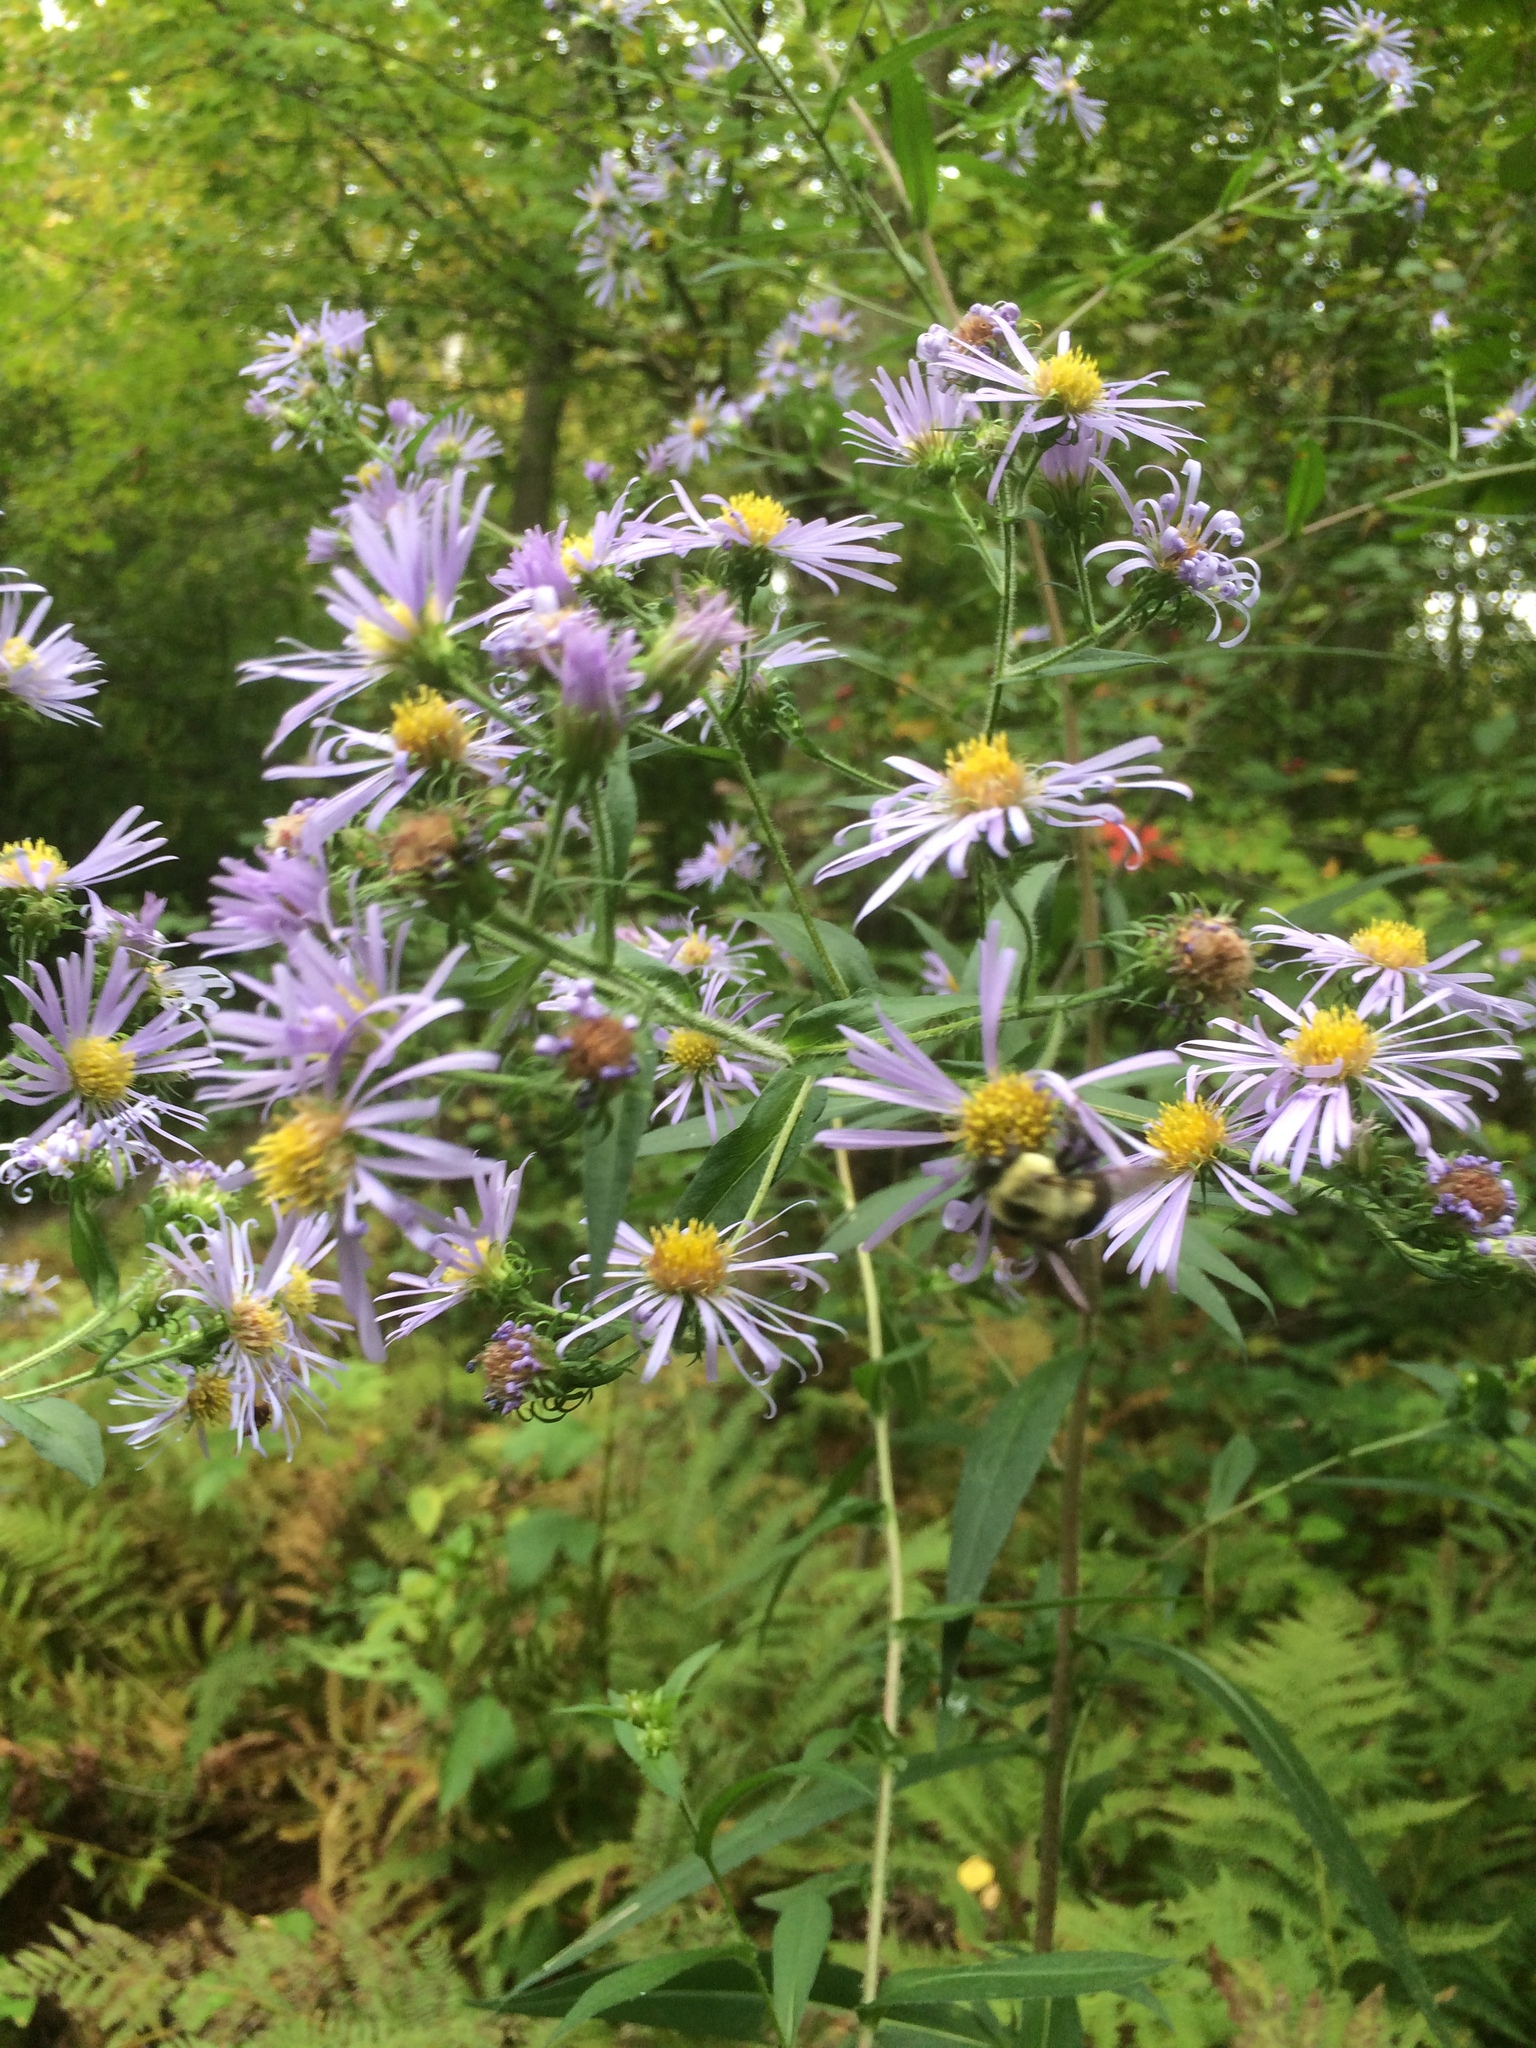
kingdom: Plantae
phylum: Tracheophyta
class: Magnoliopsida
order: Asterales
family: Asteraceae
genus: Symphyotrichum
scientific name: Symphyotrichum puniceum
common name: Bog aster
